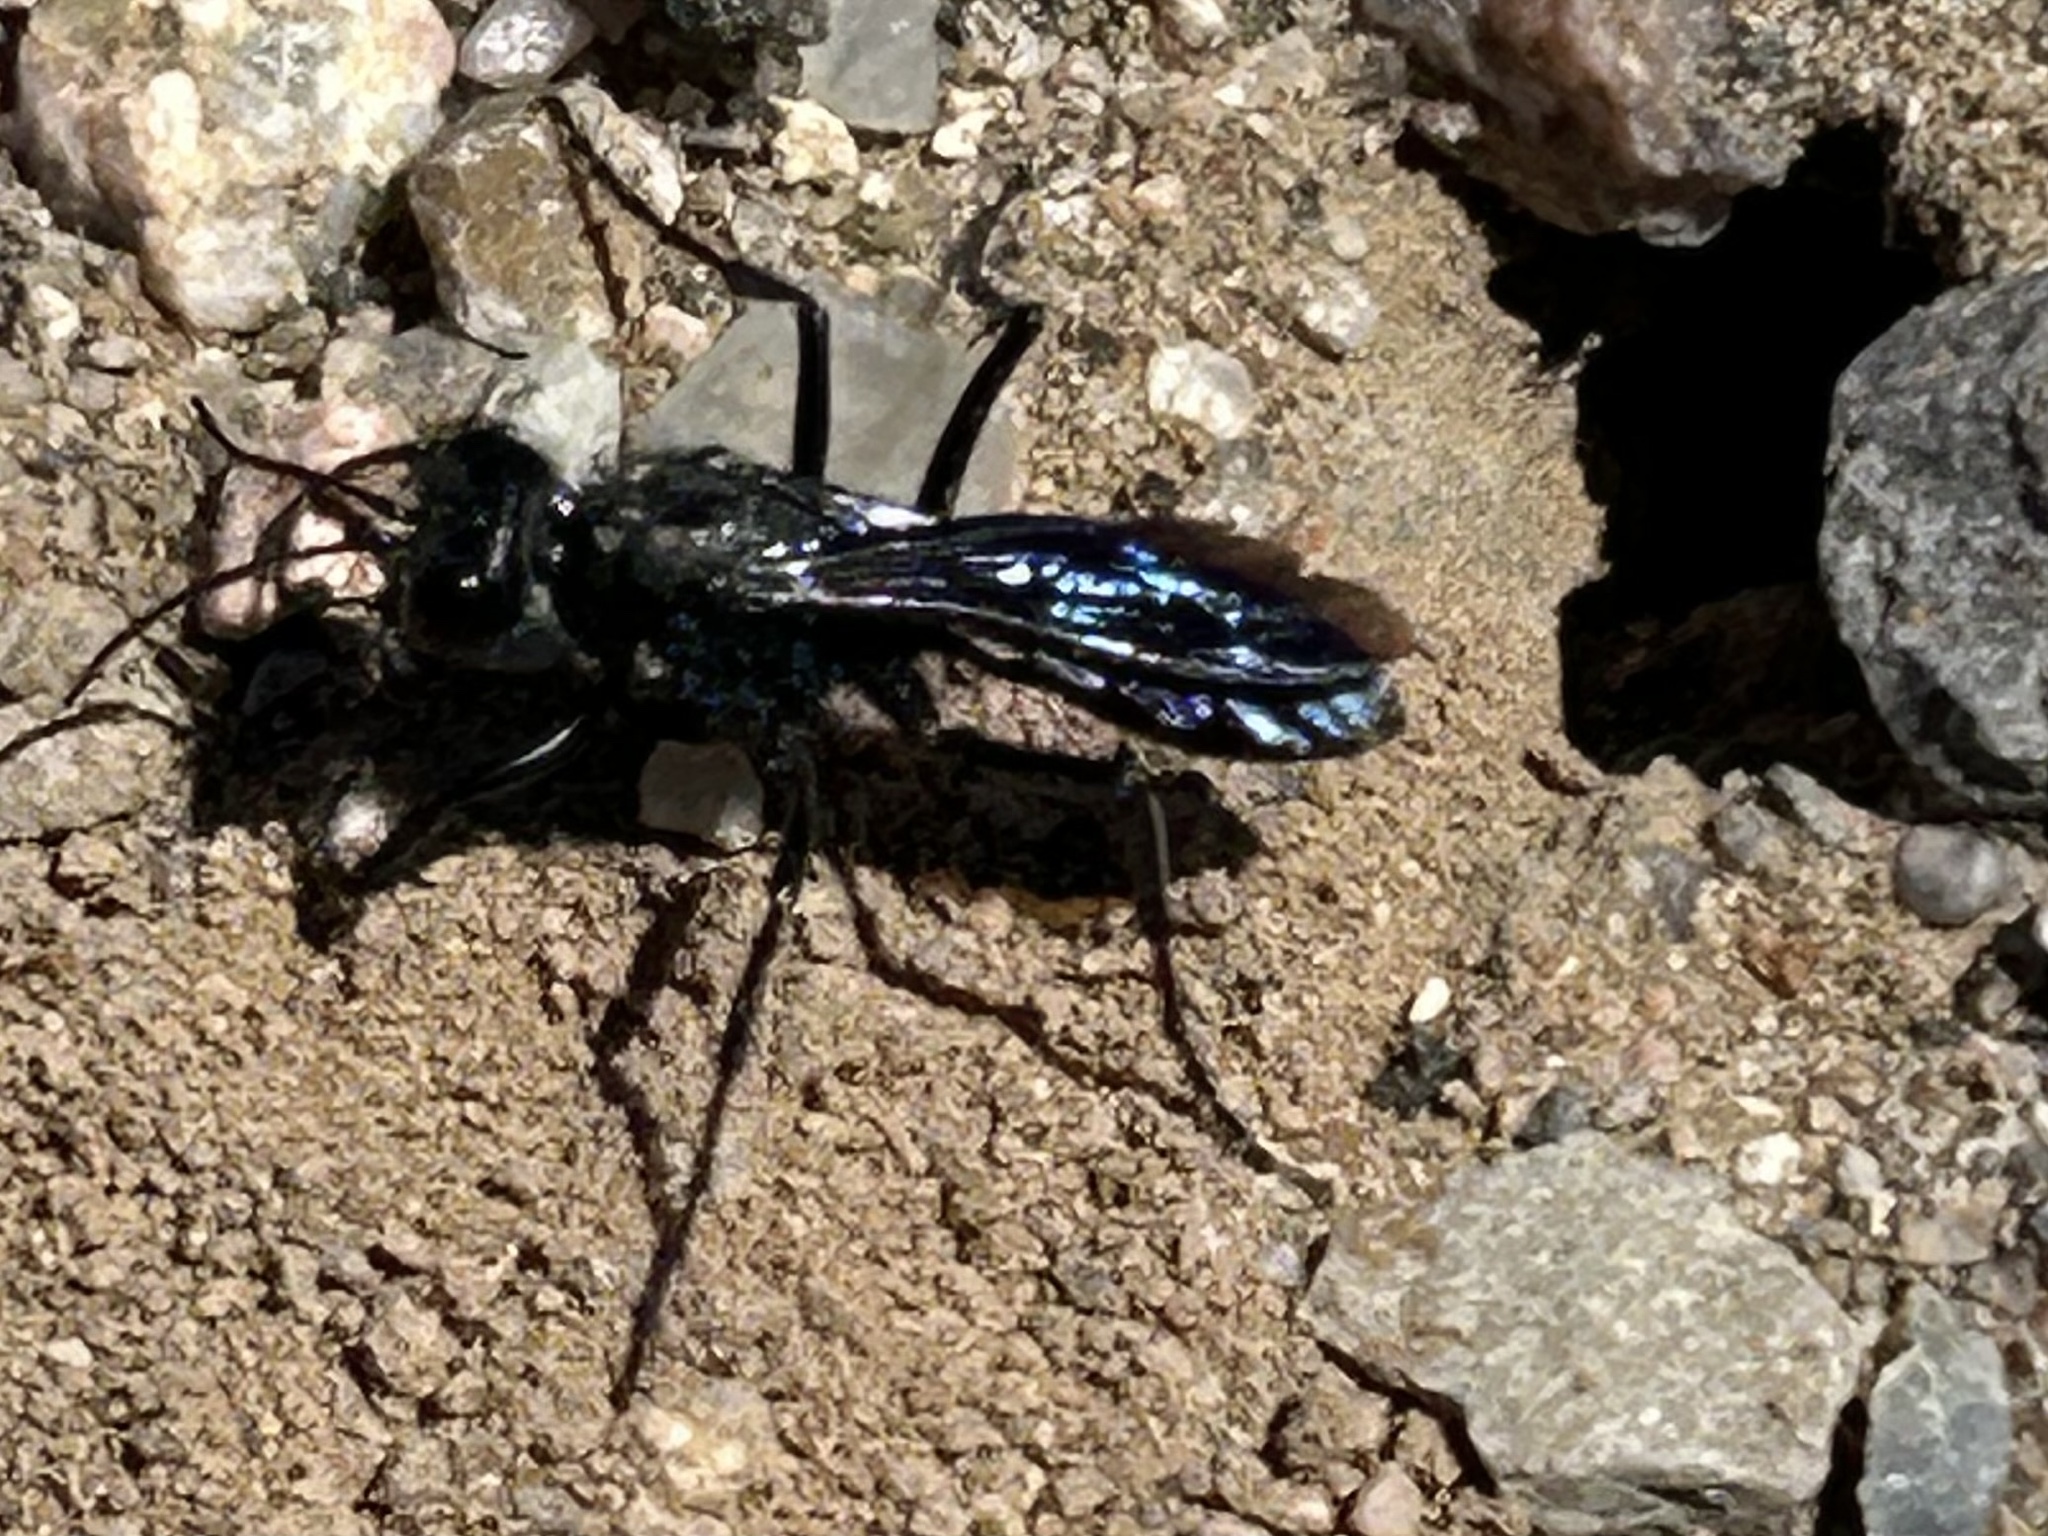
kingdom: Animalia
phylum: Arthropoda
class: Insecta
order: Hymenoptera
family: Sphecidae
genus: Podalonia
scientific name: Podalonia
